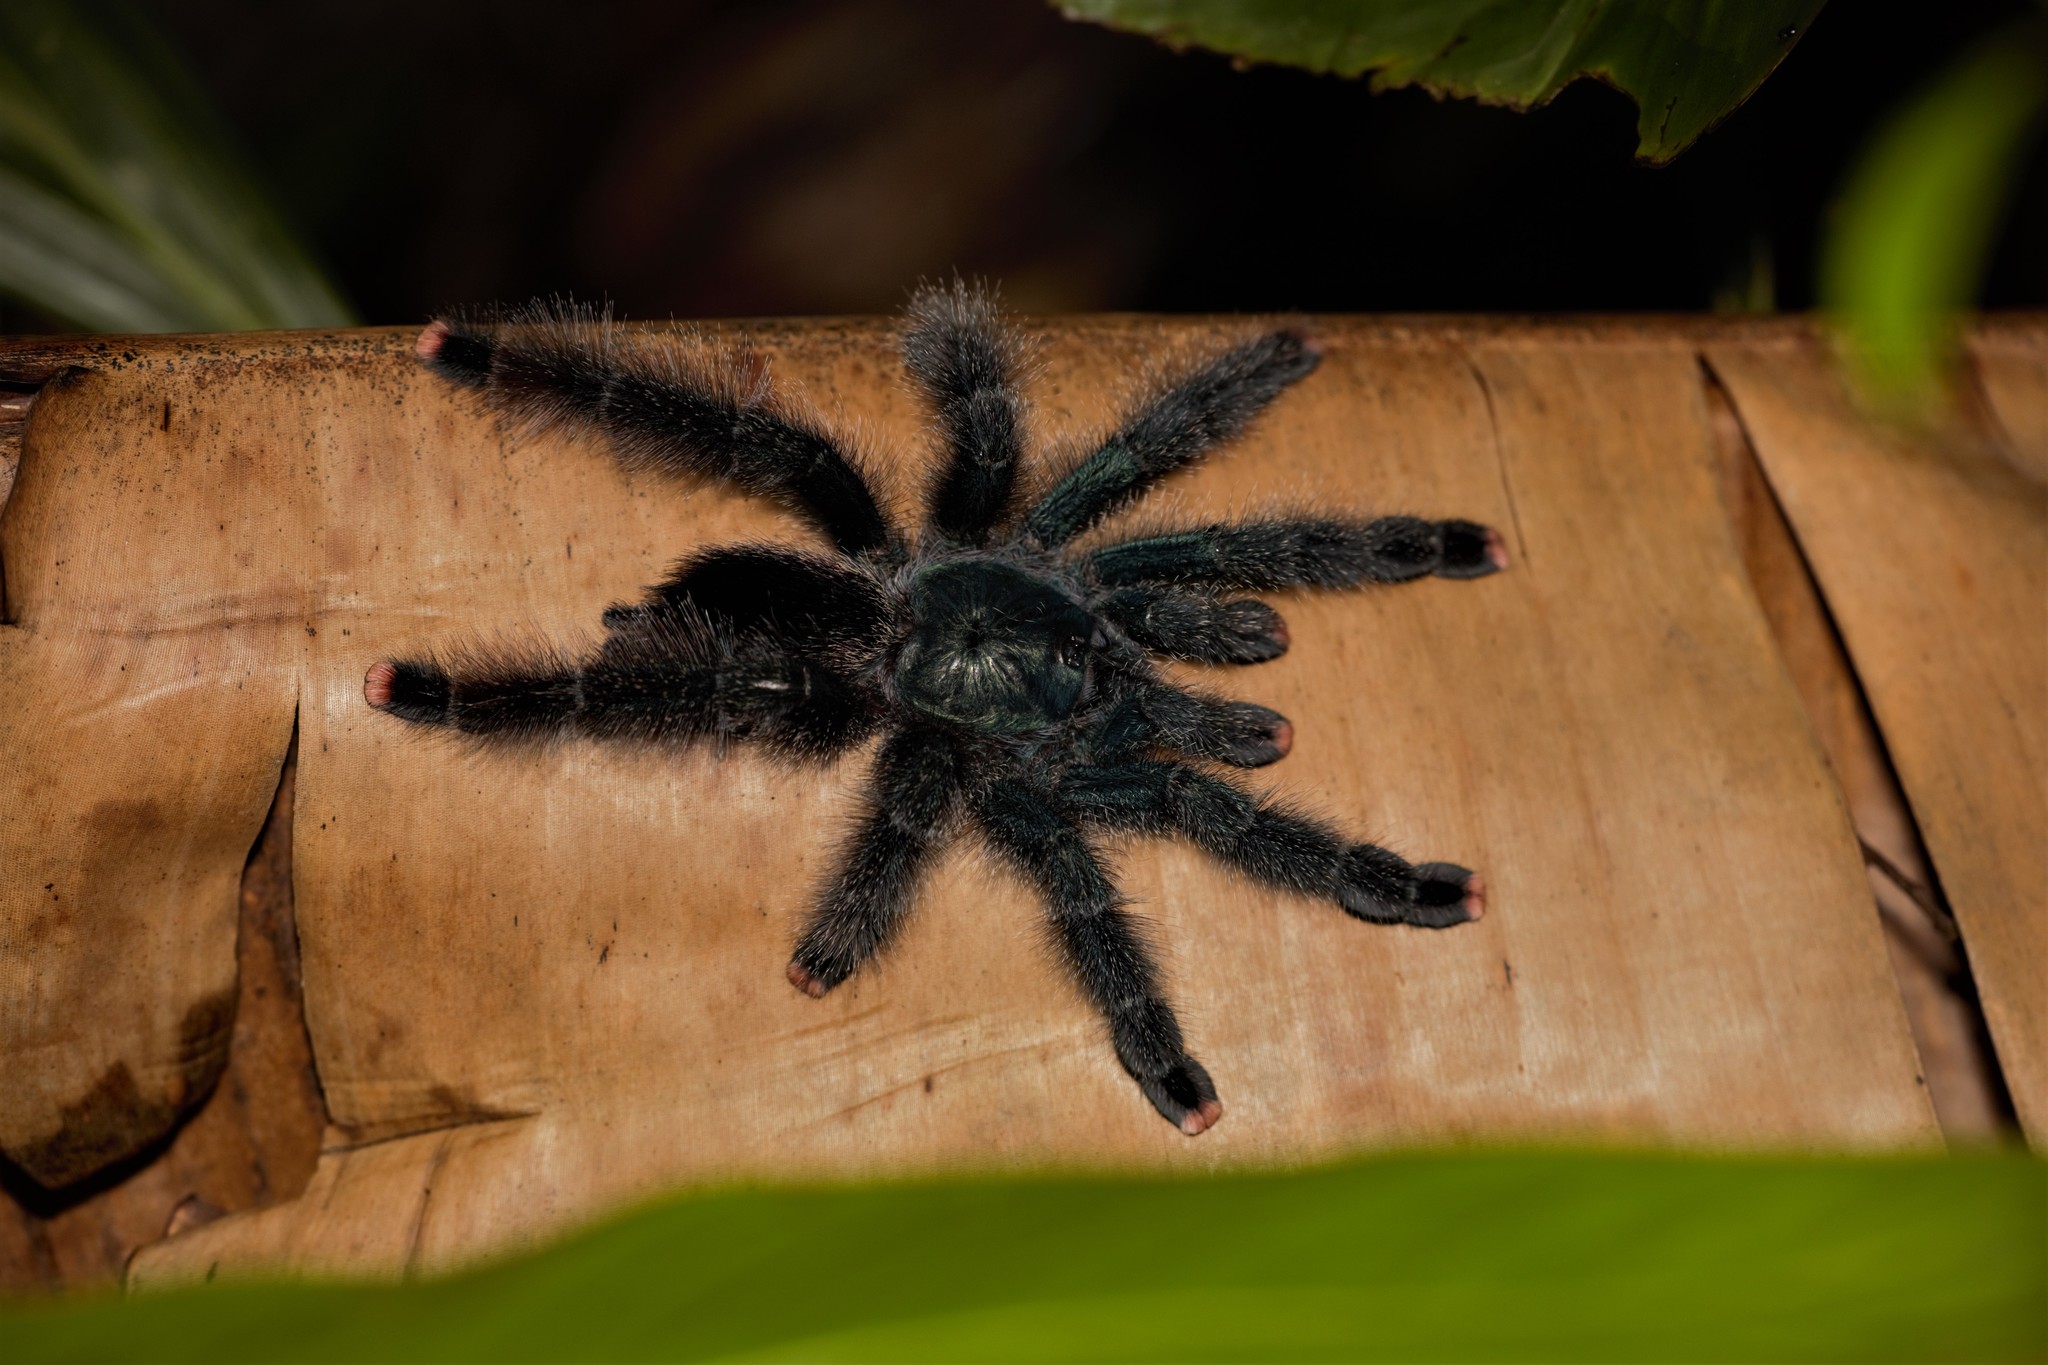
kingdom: Animalia
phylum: Arthropoda
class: Arachnida
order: Araneae
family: Theraphosidae
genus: Avicularia
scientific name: Avicularia avicularia
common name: Tarantula spiders
